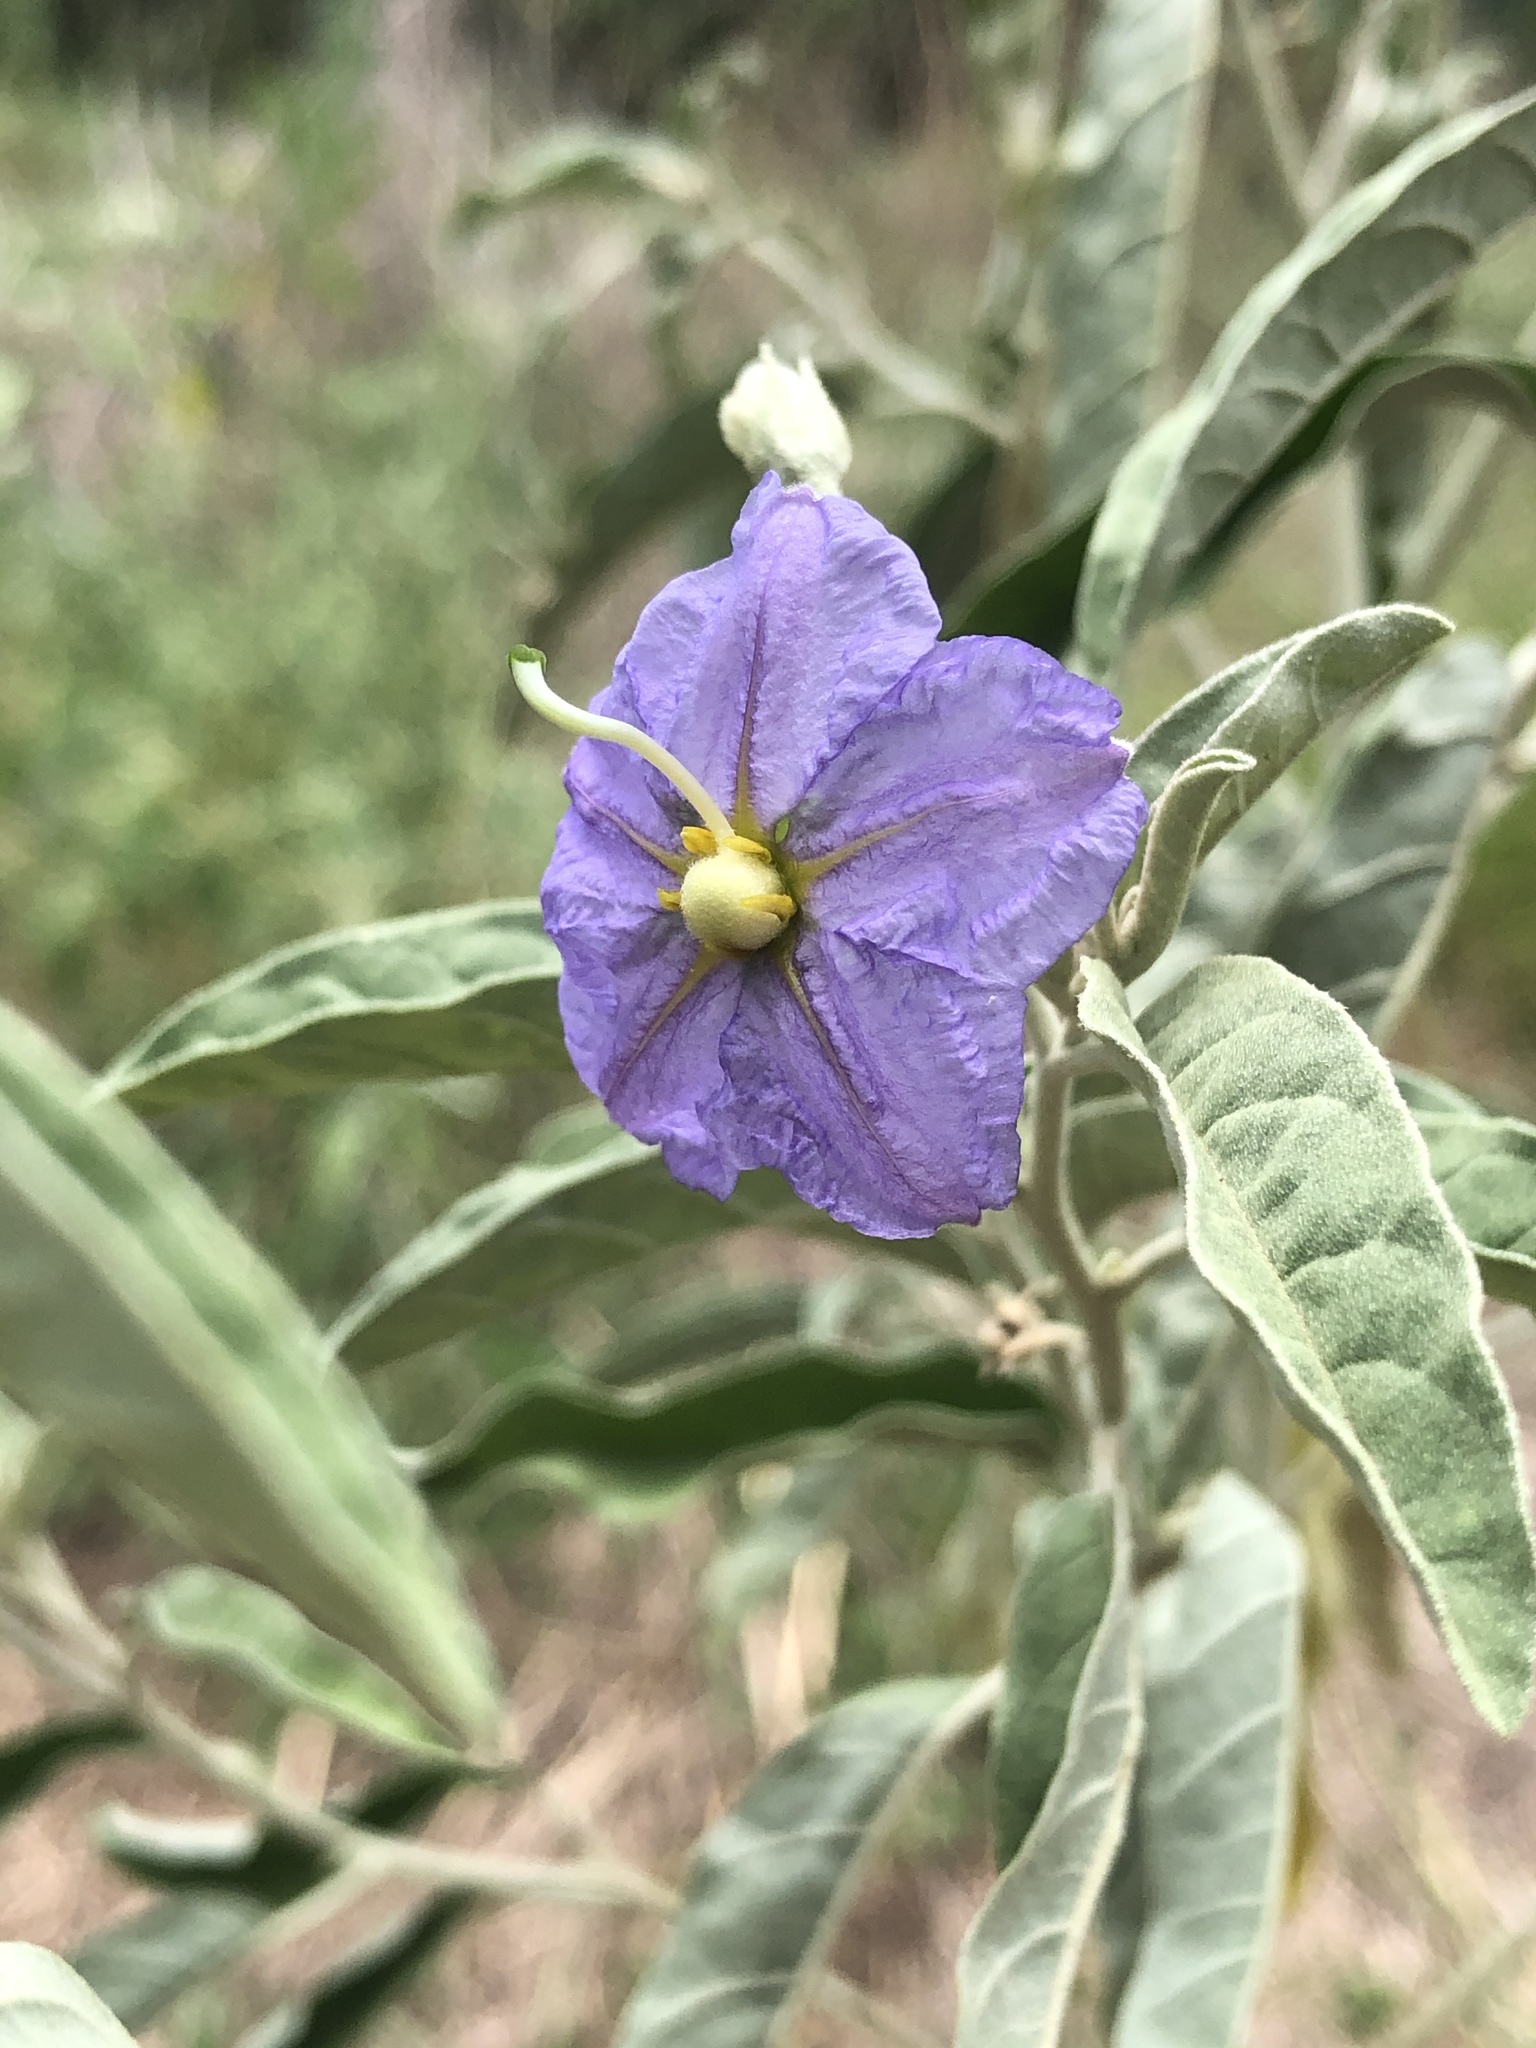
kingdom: Plantae
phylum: Tracheophyta
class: Magnoliopsida
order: Solanales
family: Solanaceae
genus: Solanum
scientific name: Solanum elaeagnifolium
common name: Silverleaf nightshade
